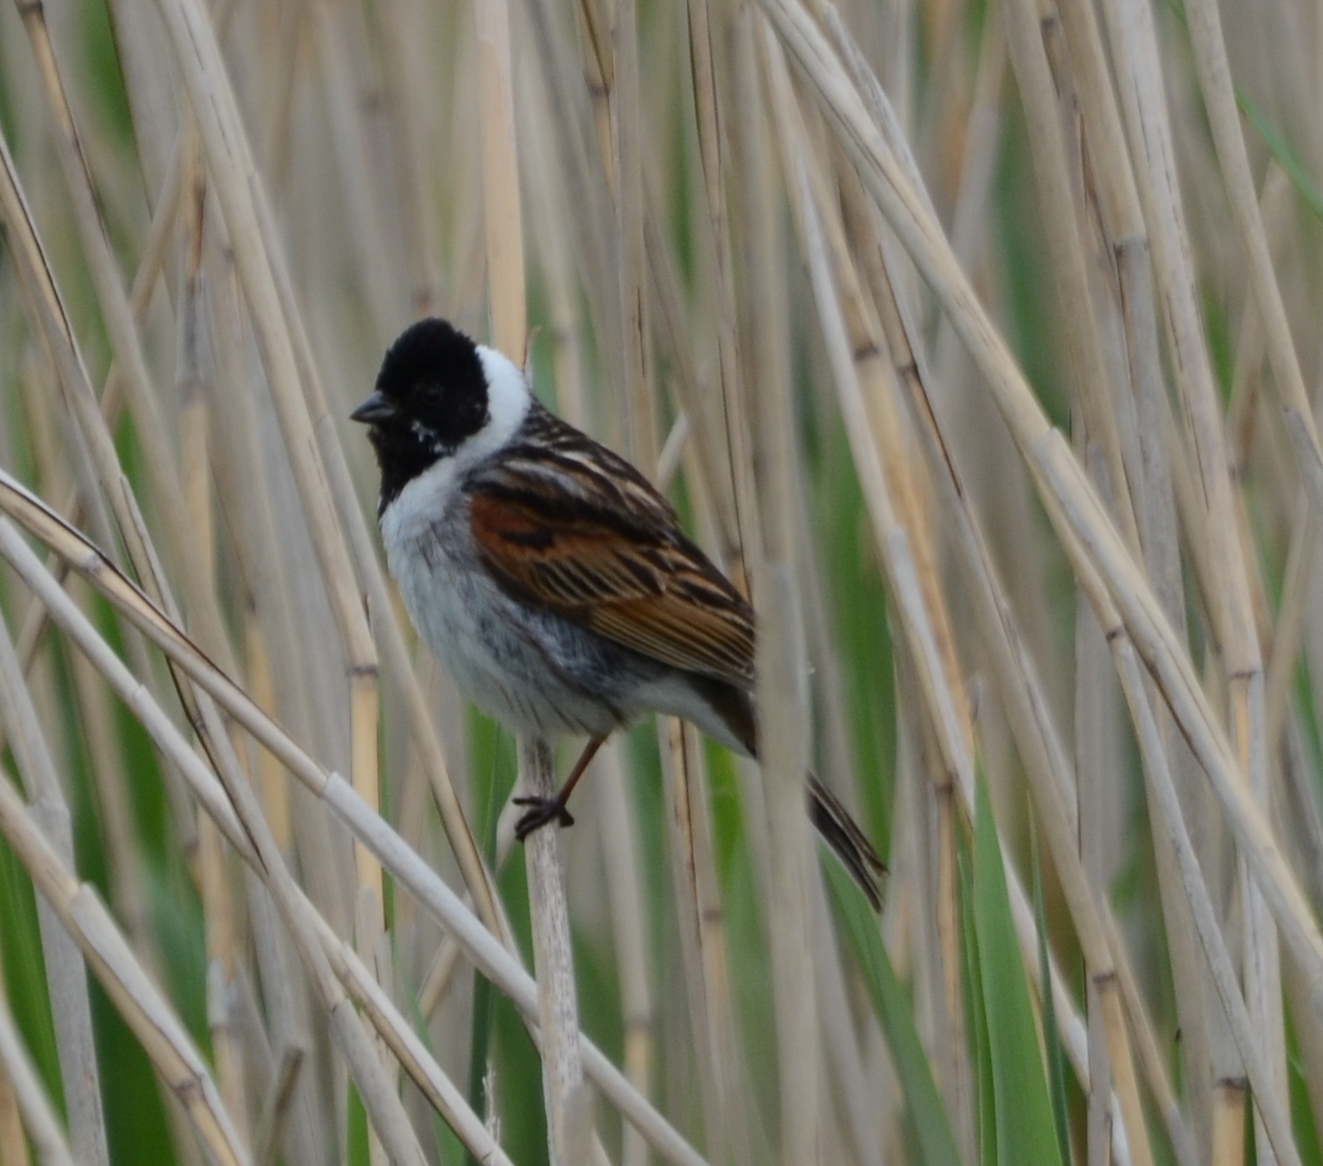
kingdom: Animalia
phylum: Chordata
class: Aves
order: Passeriformes
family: Emberizidae
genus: Emberiza
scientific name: Emberiza schoeniclus
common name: Reed bunting
